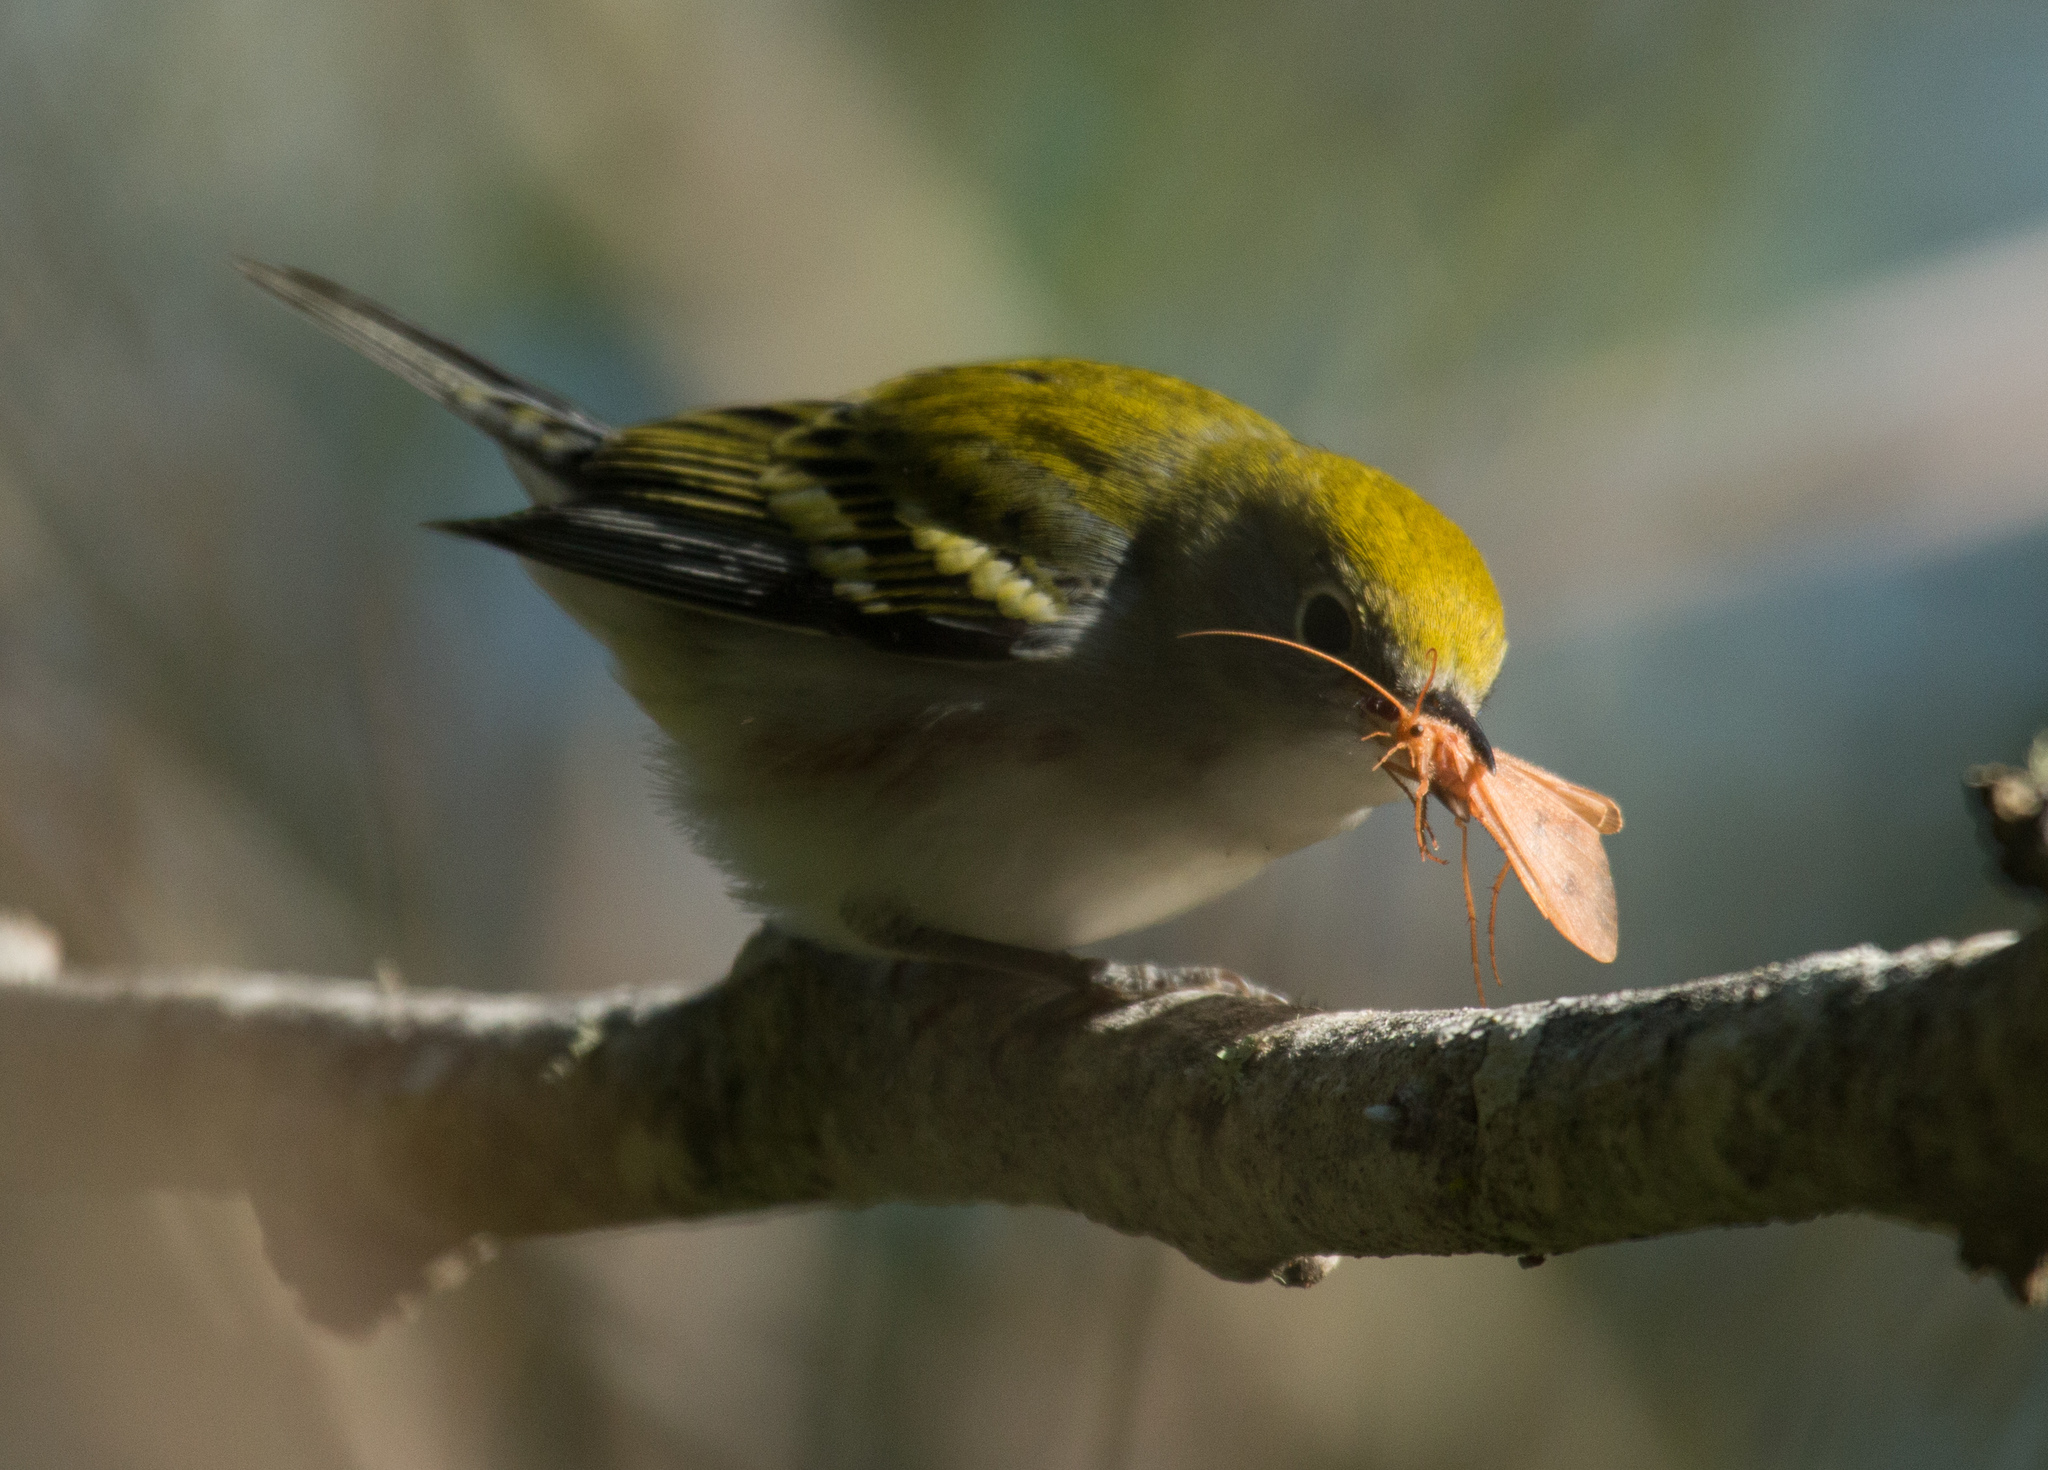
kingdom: Animalia
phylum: Chordata
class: Aves
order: Passeriformes
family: Parulidae
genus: Setophaga
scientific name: Setophaga pensylvanica
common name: Chestnut-sided warbler
